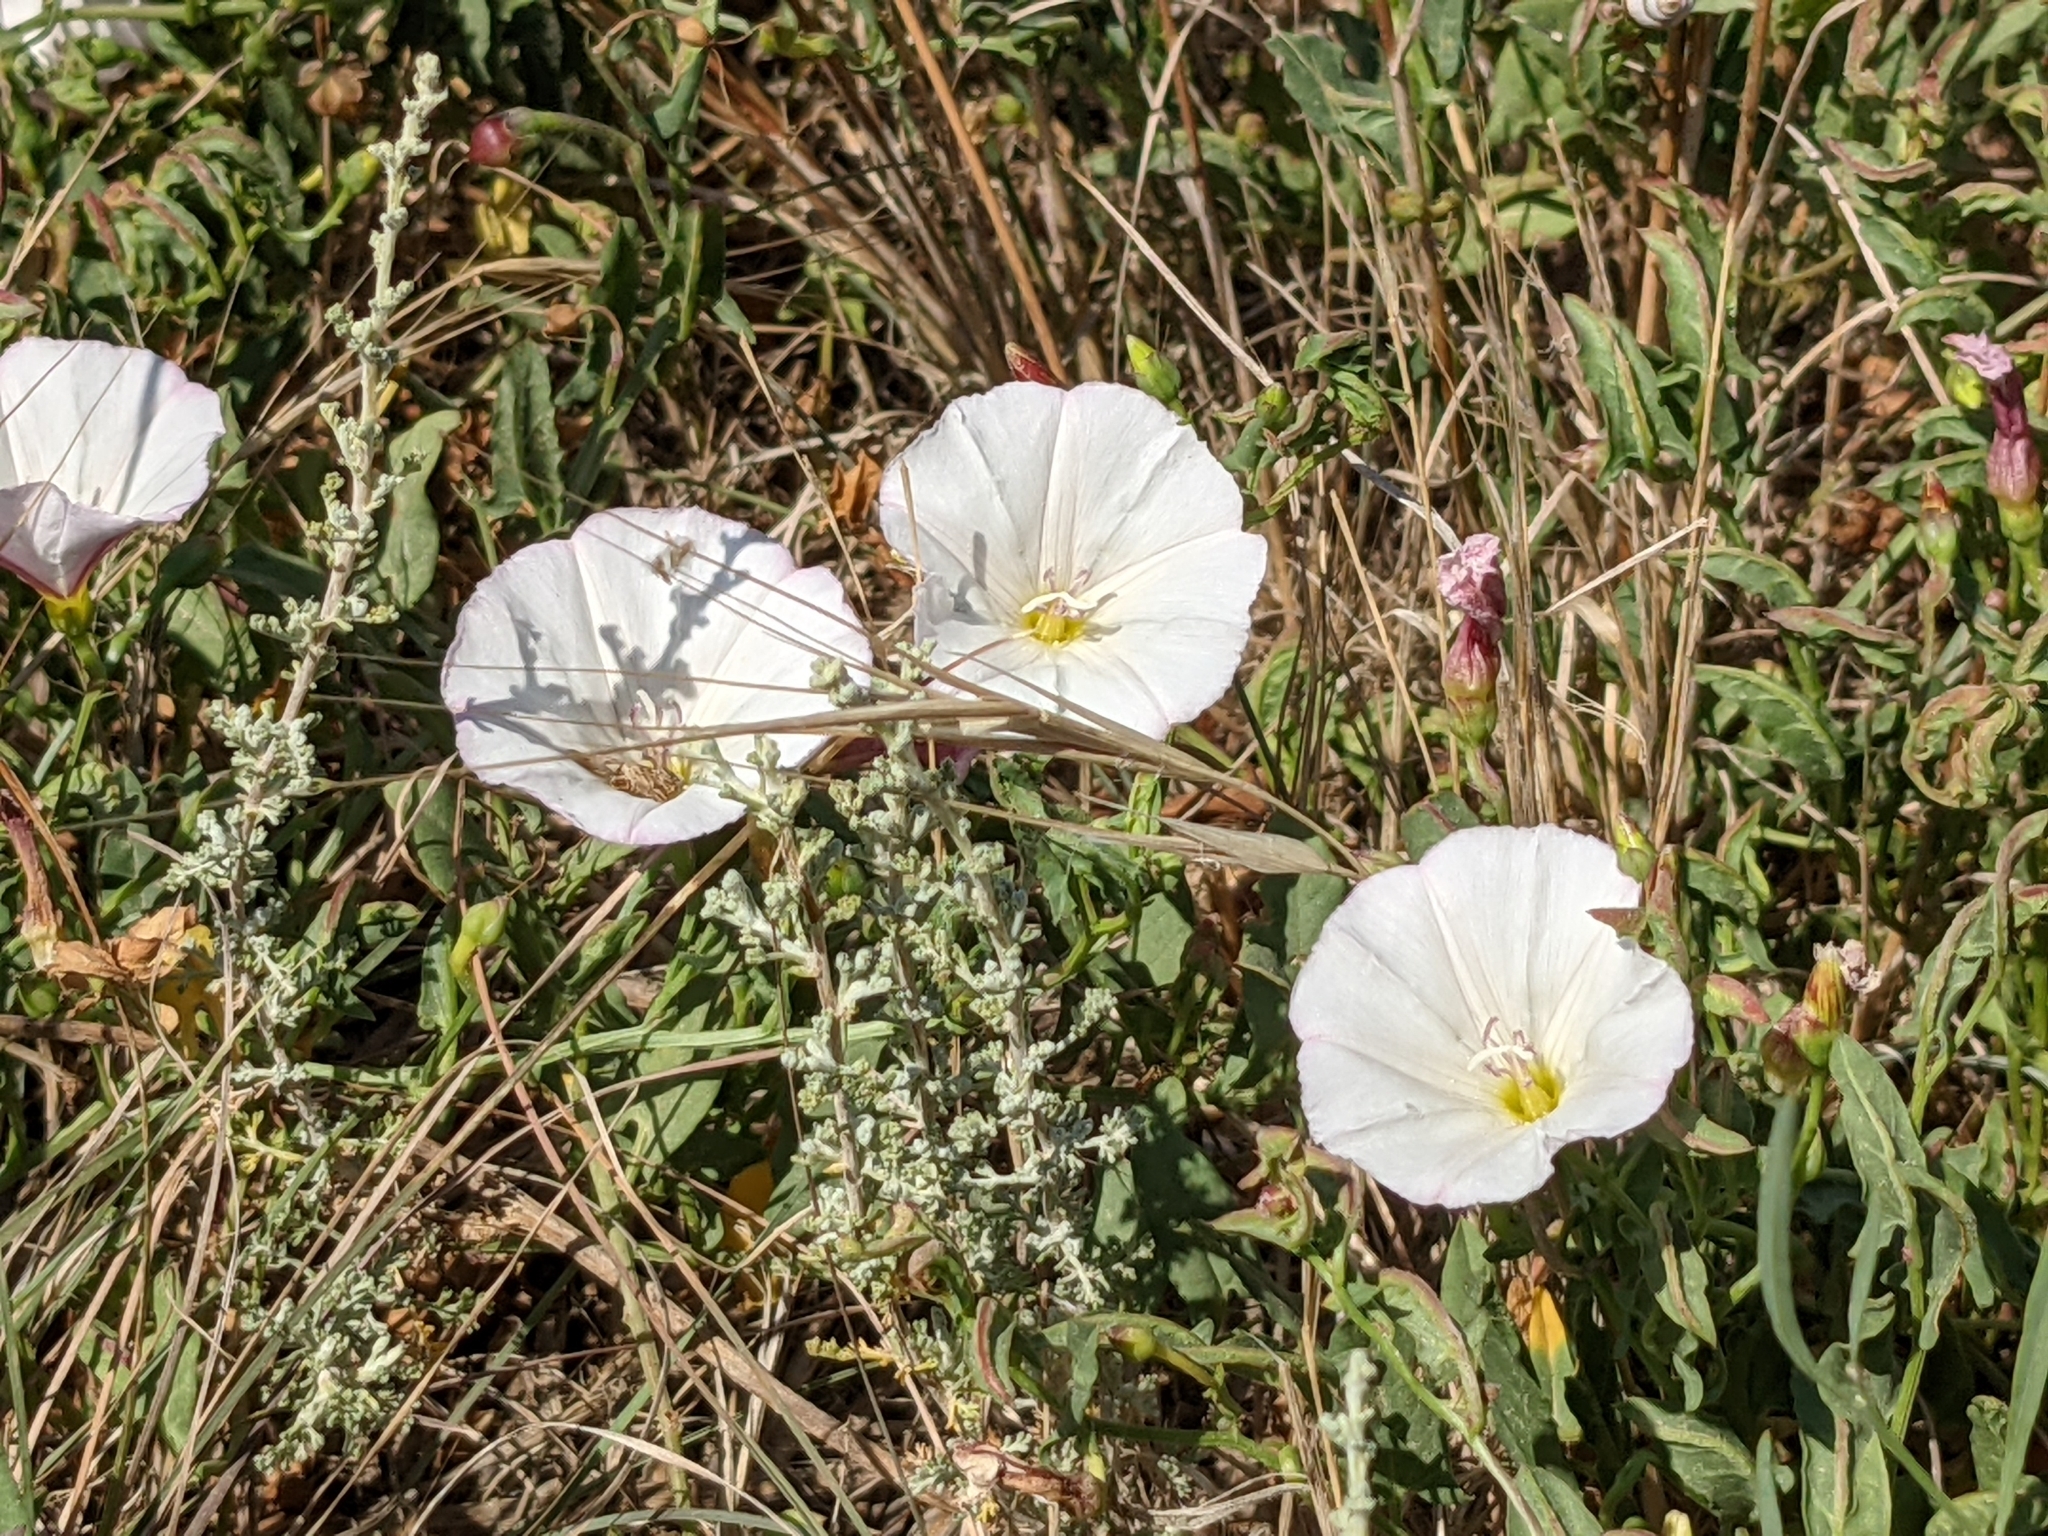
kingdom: Plantae
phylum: Tracheophyta
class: Magnoliopsida
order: Solanales
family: Convolvulaceae
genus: Convolvulus
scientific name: Convolvulus arvensis
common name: Field bindweed
